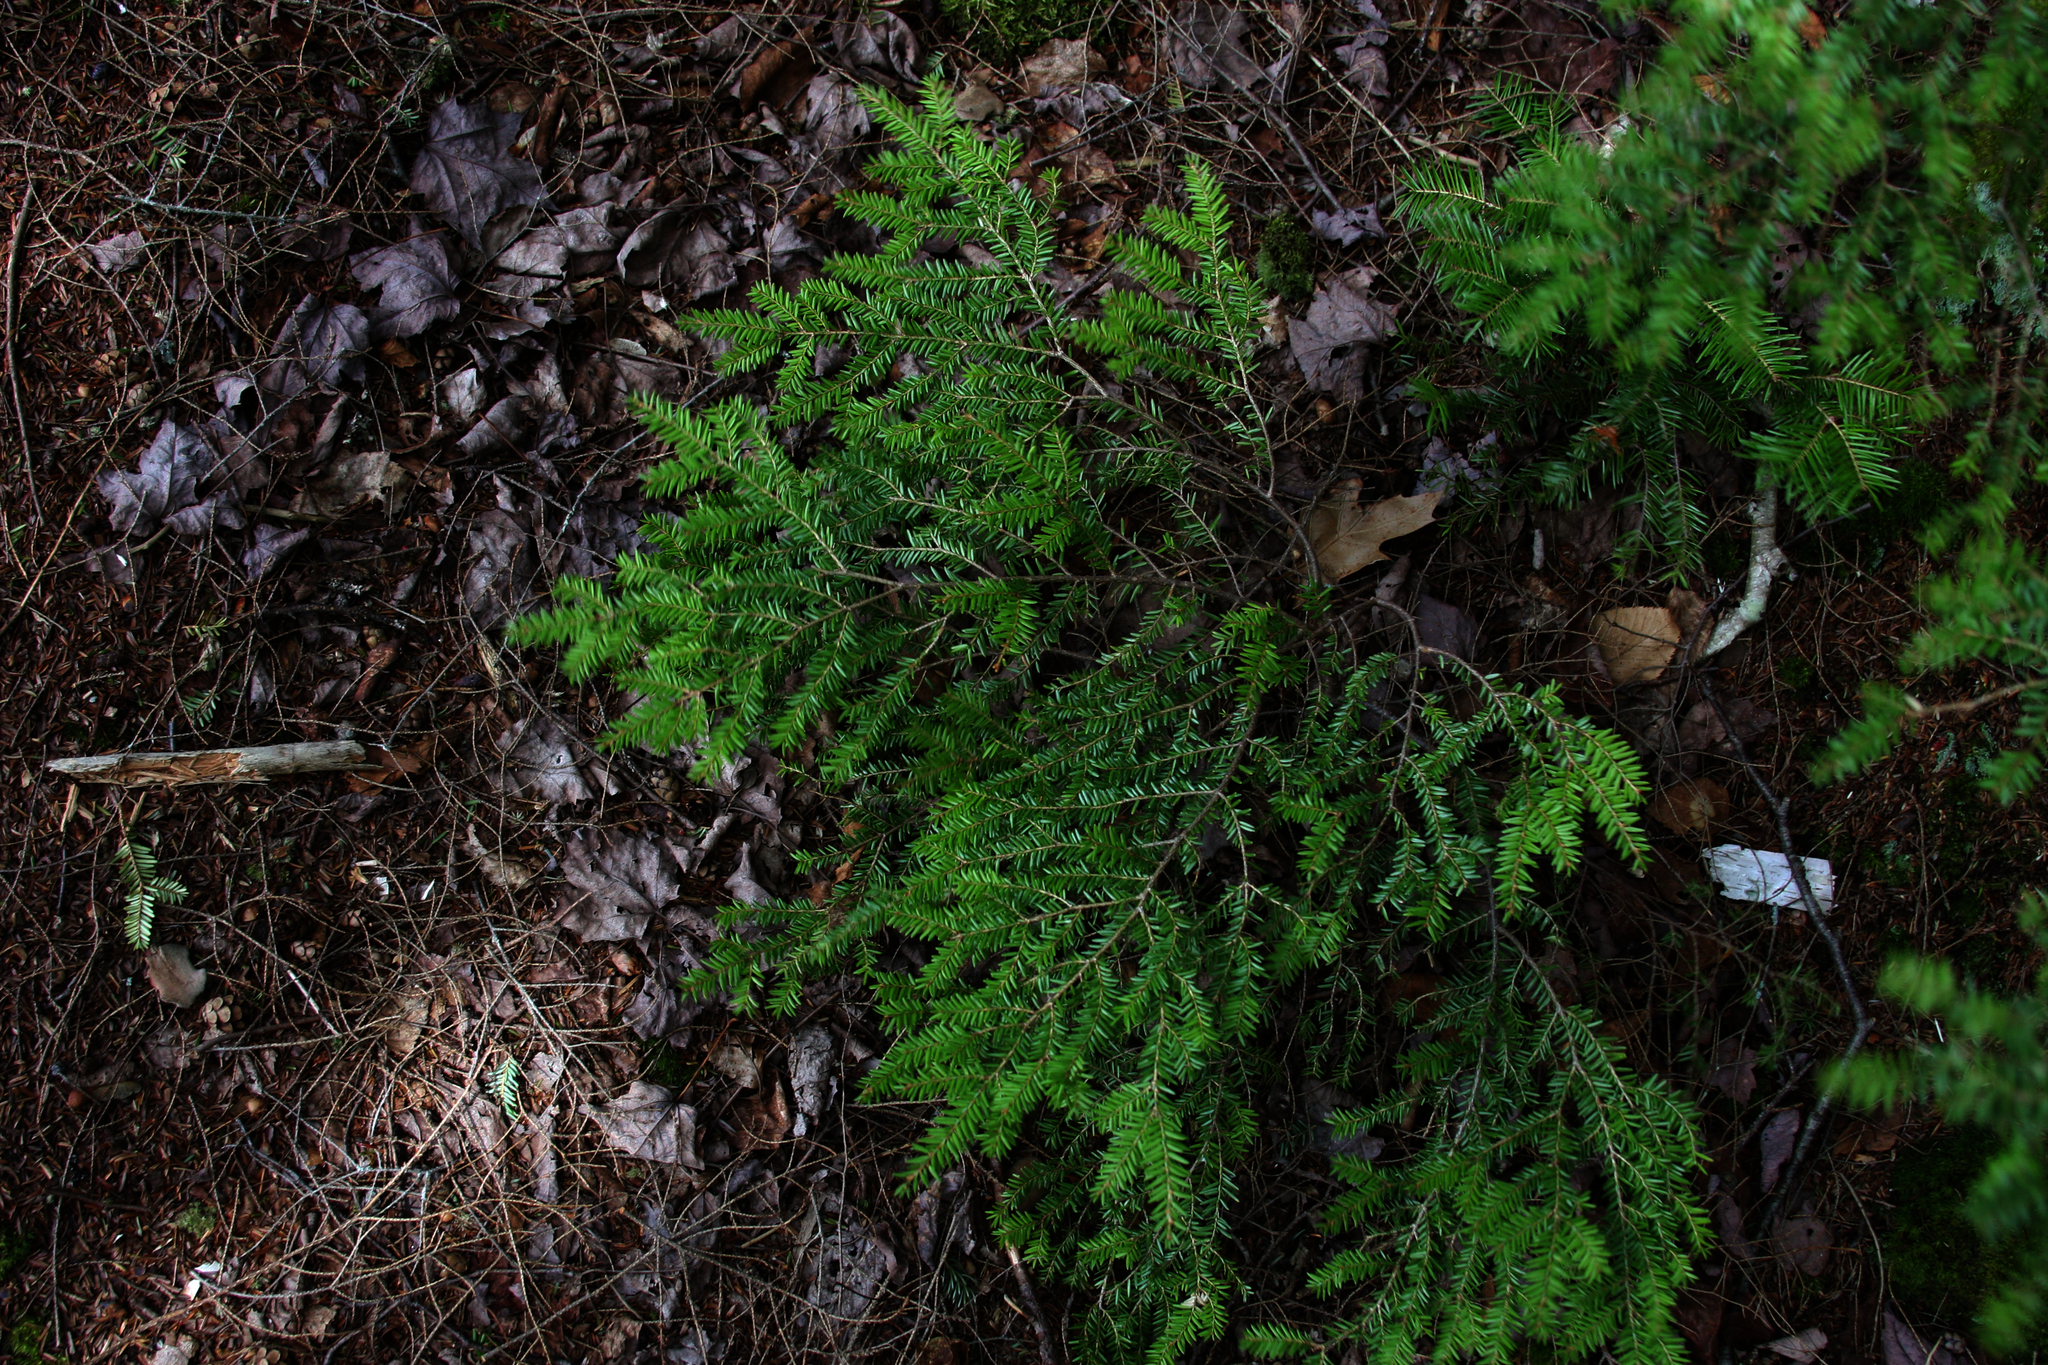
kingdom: Plantae
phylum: Tracheophyta
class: Pinopsida
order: Pinales
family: Pinaceae
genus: Tsuga
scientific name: Tsuga canadensis
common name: Eastern hemlock
